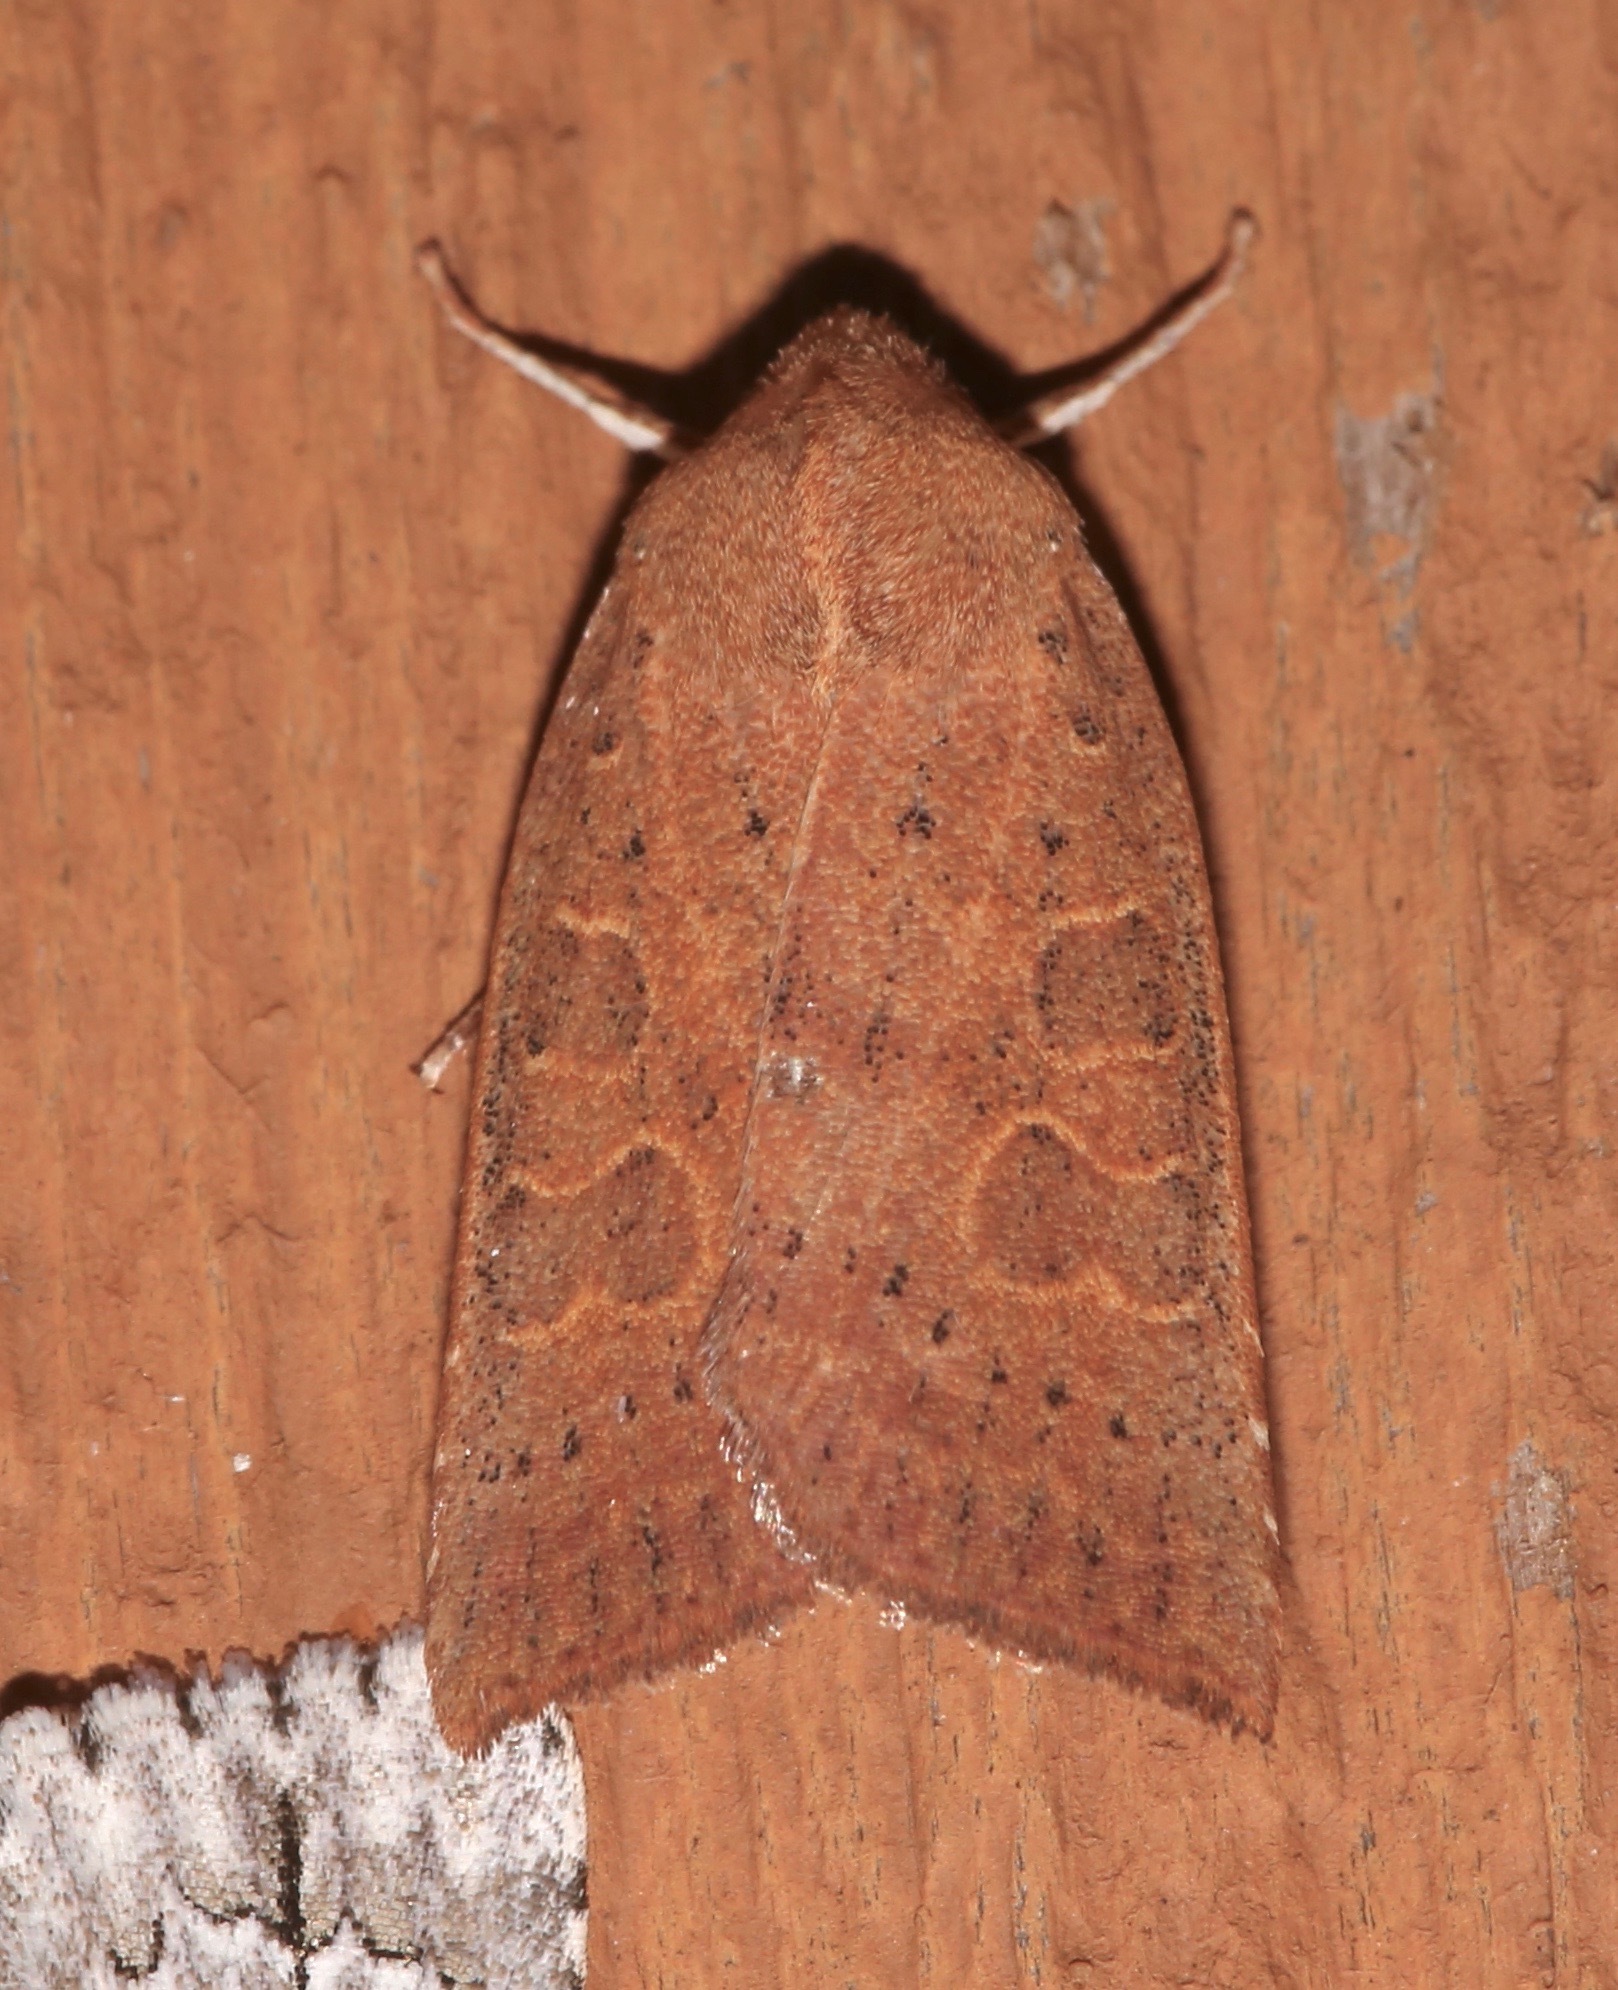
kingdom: Animalia
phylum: Arthropoda
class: Insecta
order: Lepidoptera
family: Noctuidae
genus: Xystopeplus
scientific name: Xystopeplus rufago
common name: Red-winged sallow
